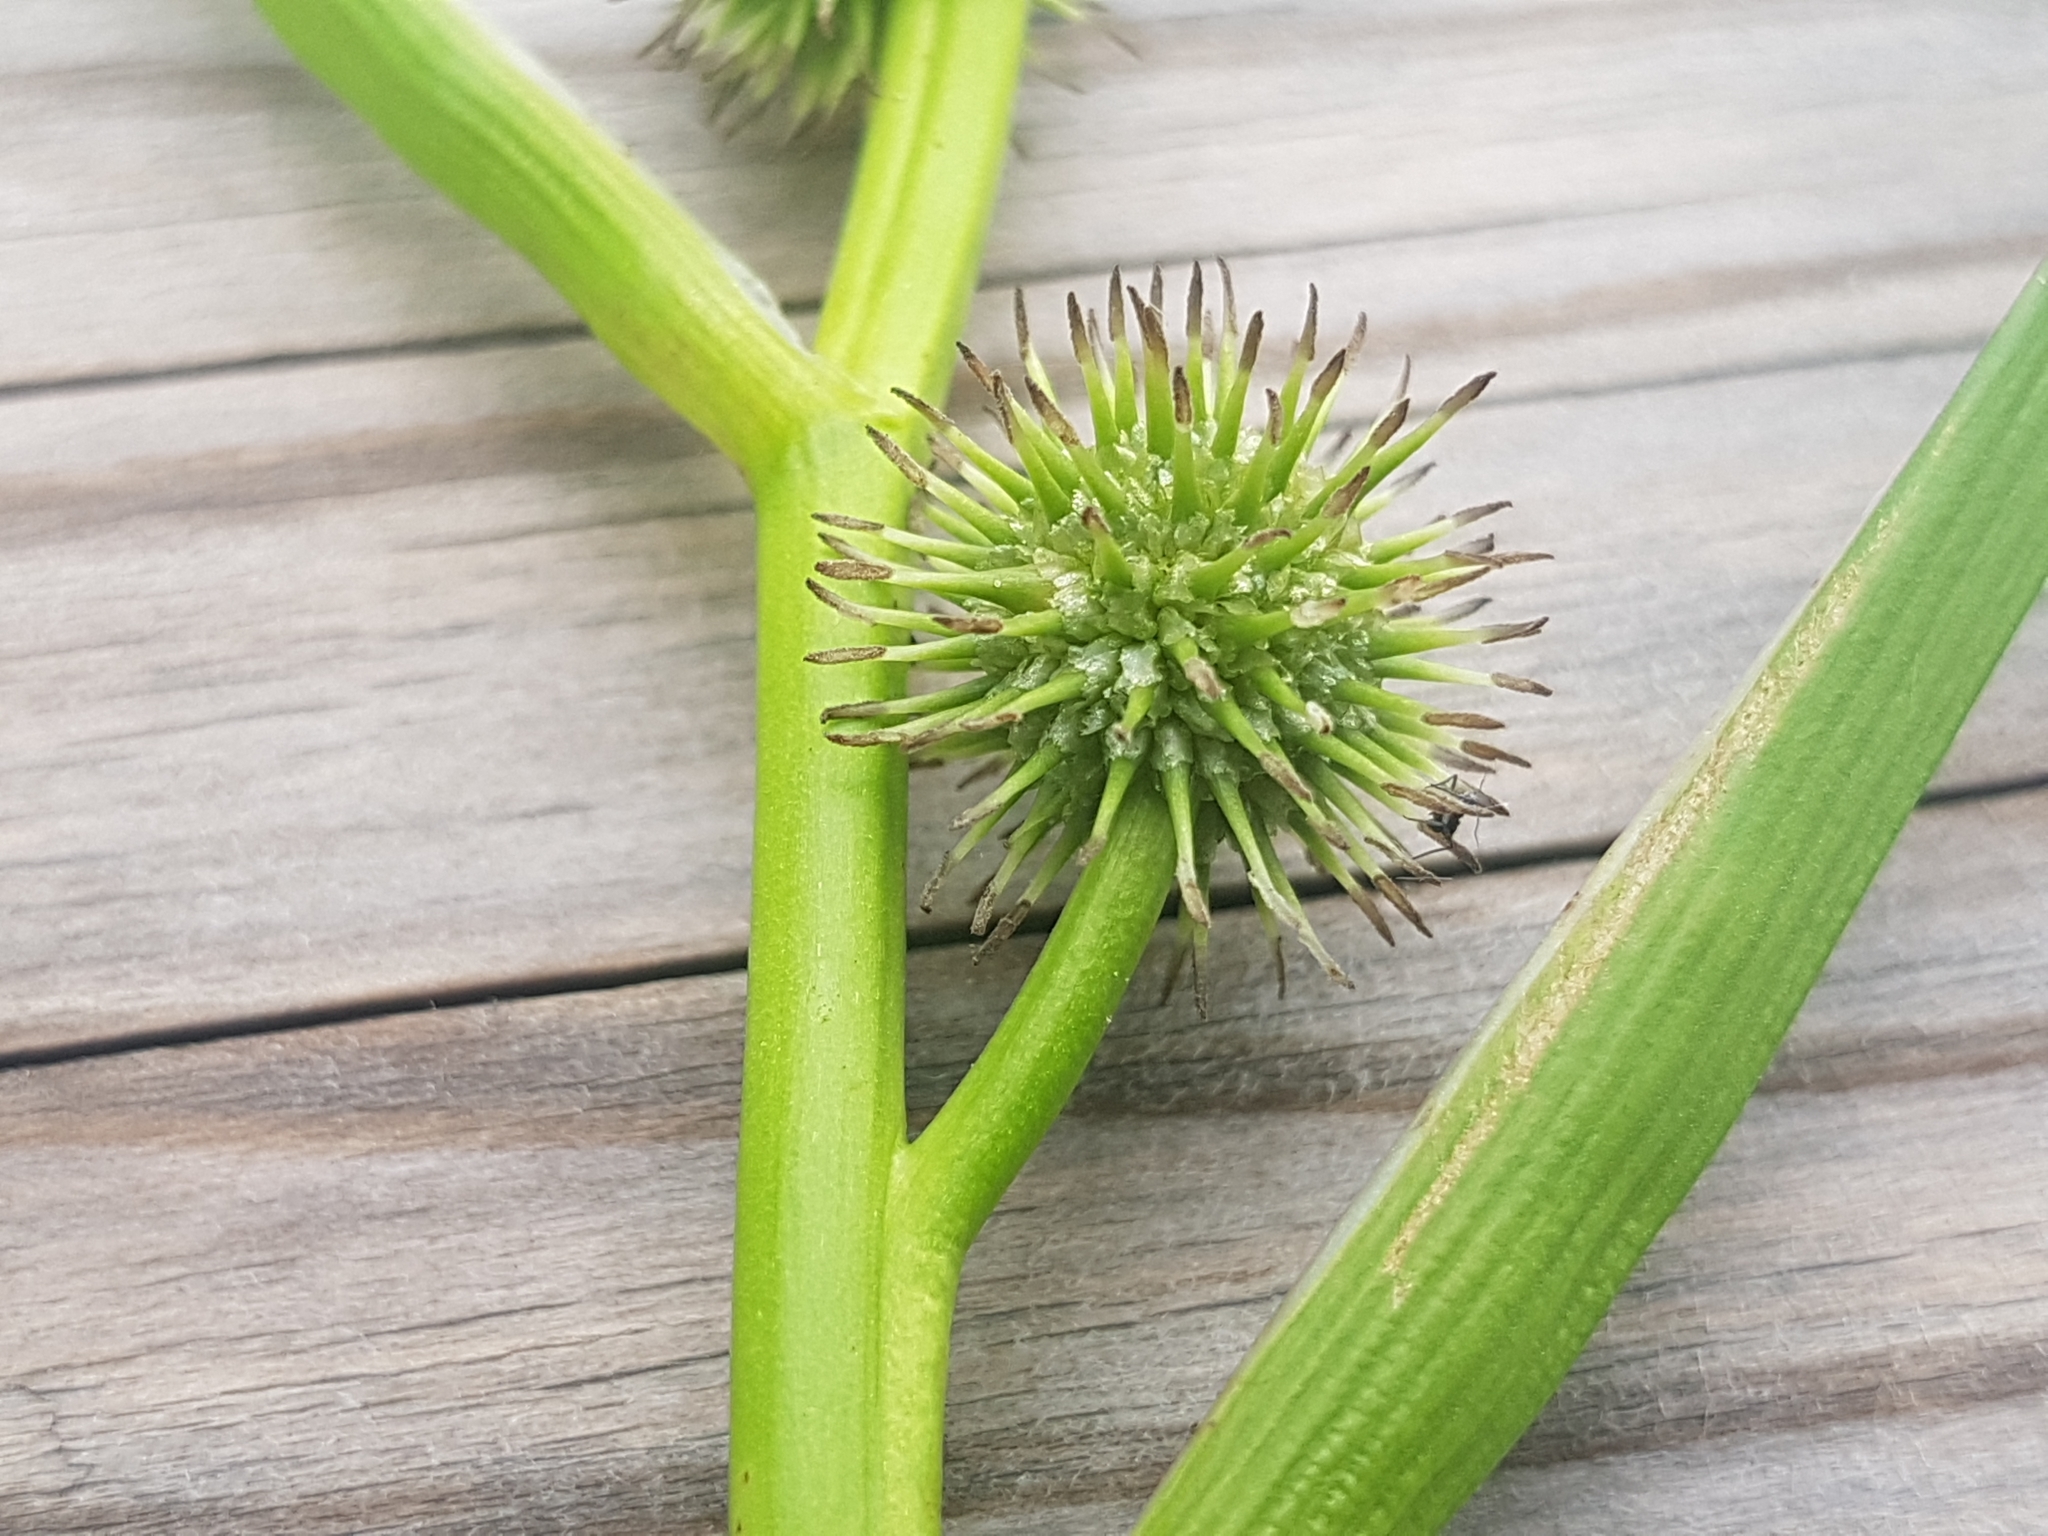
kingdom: Plantae
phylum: Tracheophyta
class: Liliopsida
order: Poales
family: Typhaceae
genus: Sparganium
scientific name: Sparganium emersum
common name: Unbranched bur-reed
